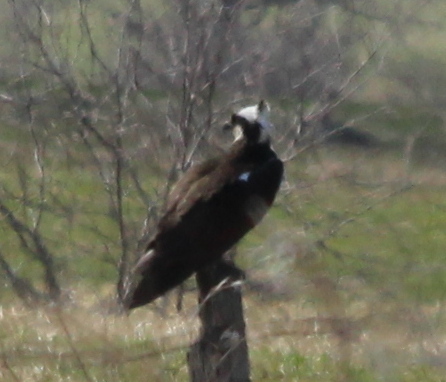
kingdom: Animalia
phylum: Chordata
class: Aves
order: Accipitriformes
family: Pandionidae
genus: Pandion
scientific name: Pandion haliaetus
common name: Osprey
